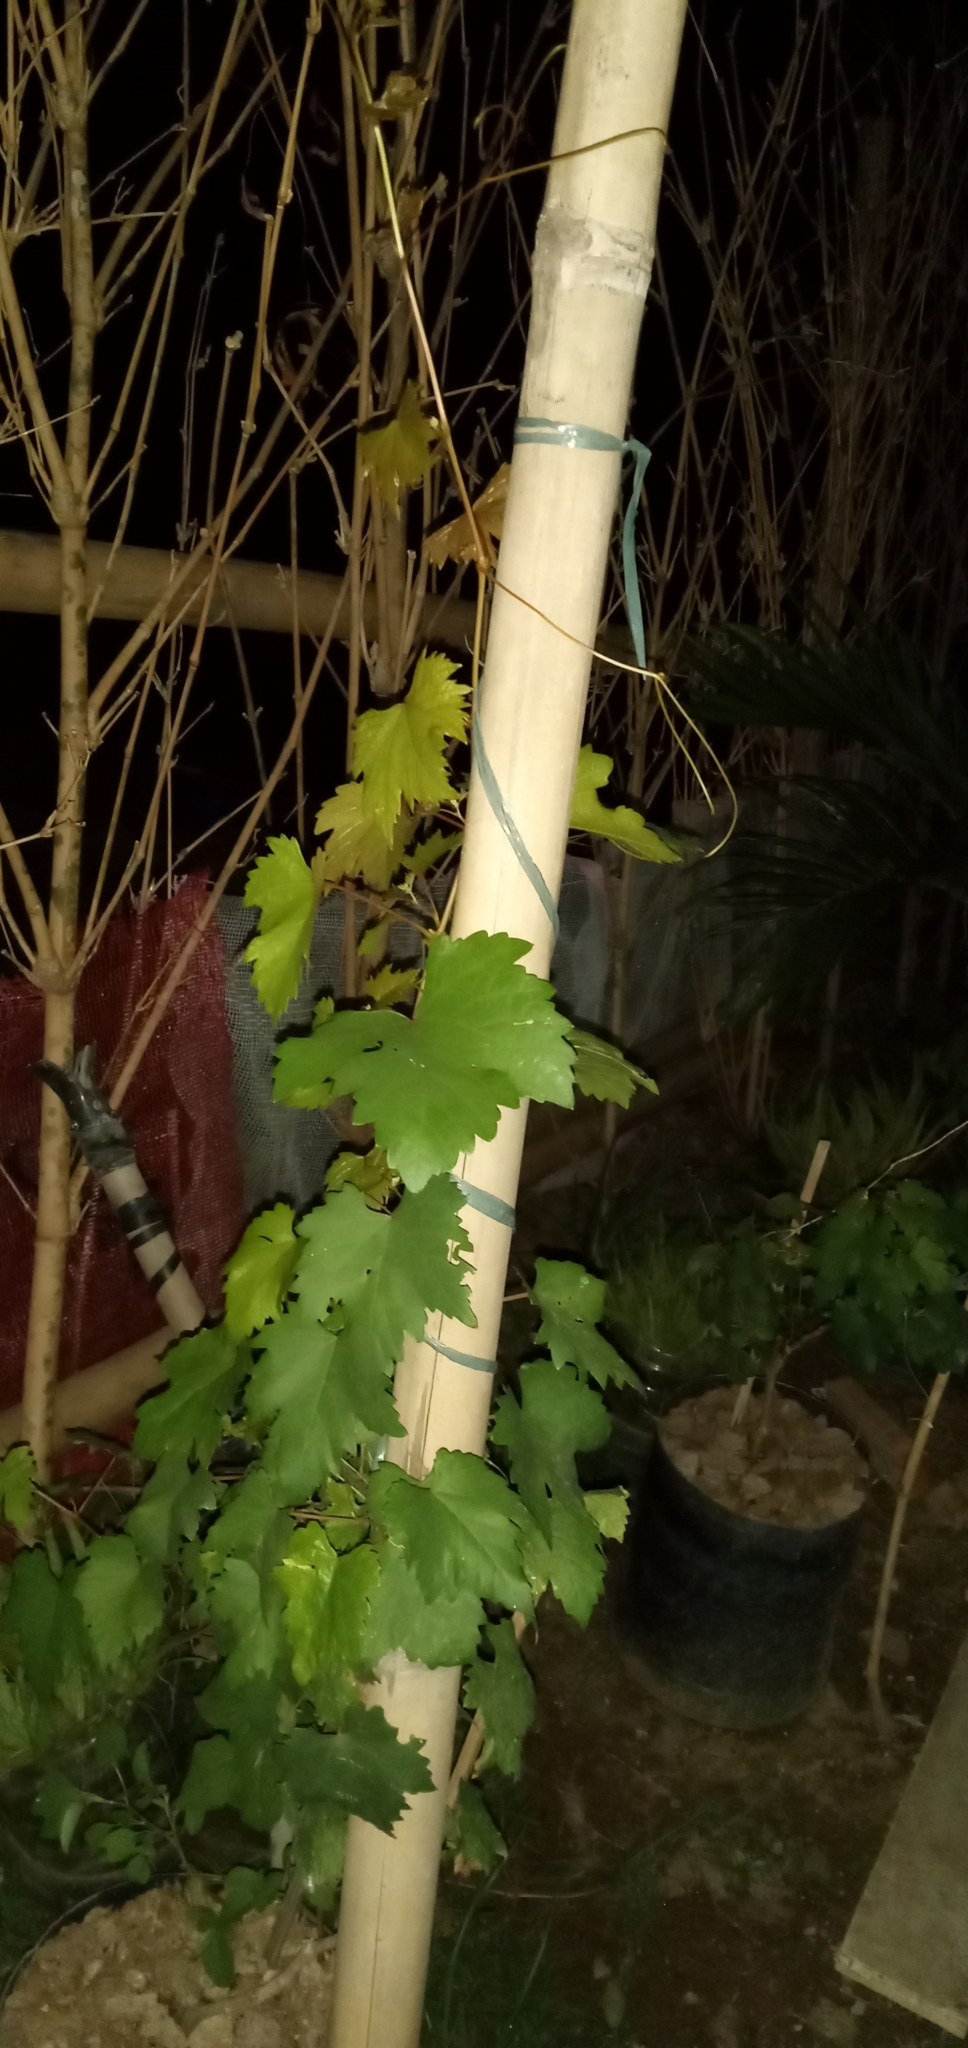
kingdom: Plantae
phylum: Tracheophyta
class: Magnoliopsida
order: Vitales
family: Vitaceae
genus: Vitis
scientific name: Vitis vinifera
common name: Grape-vine
